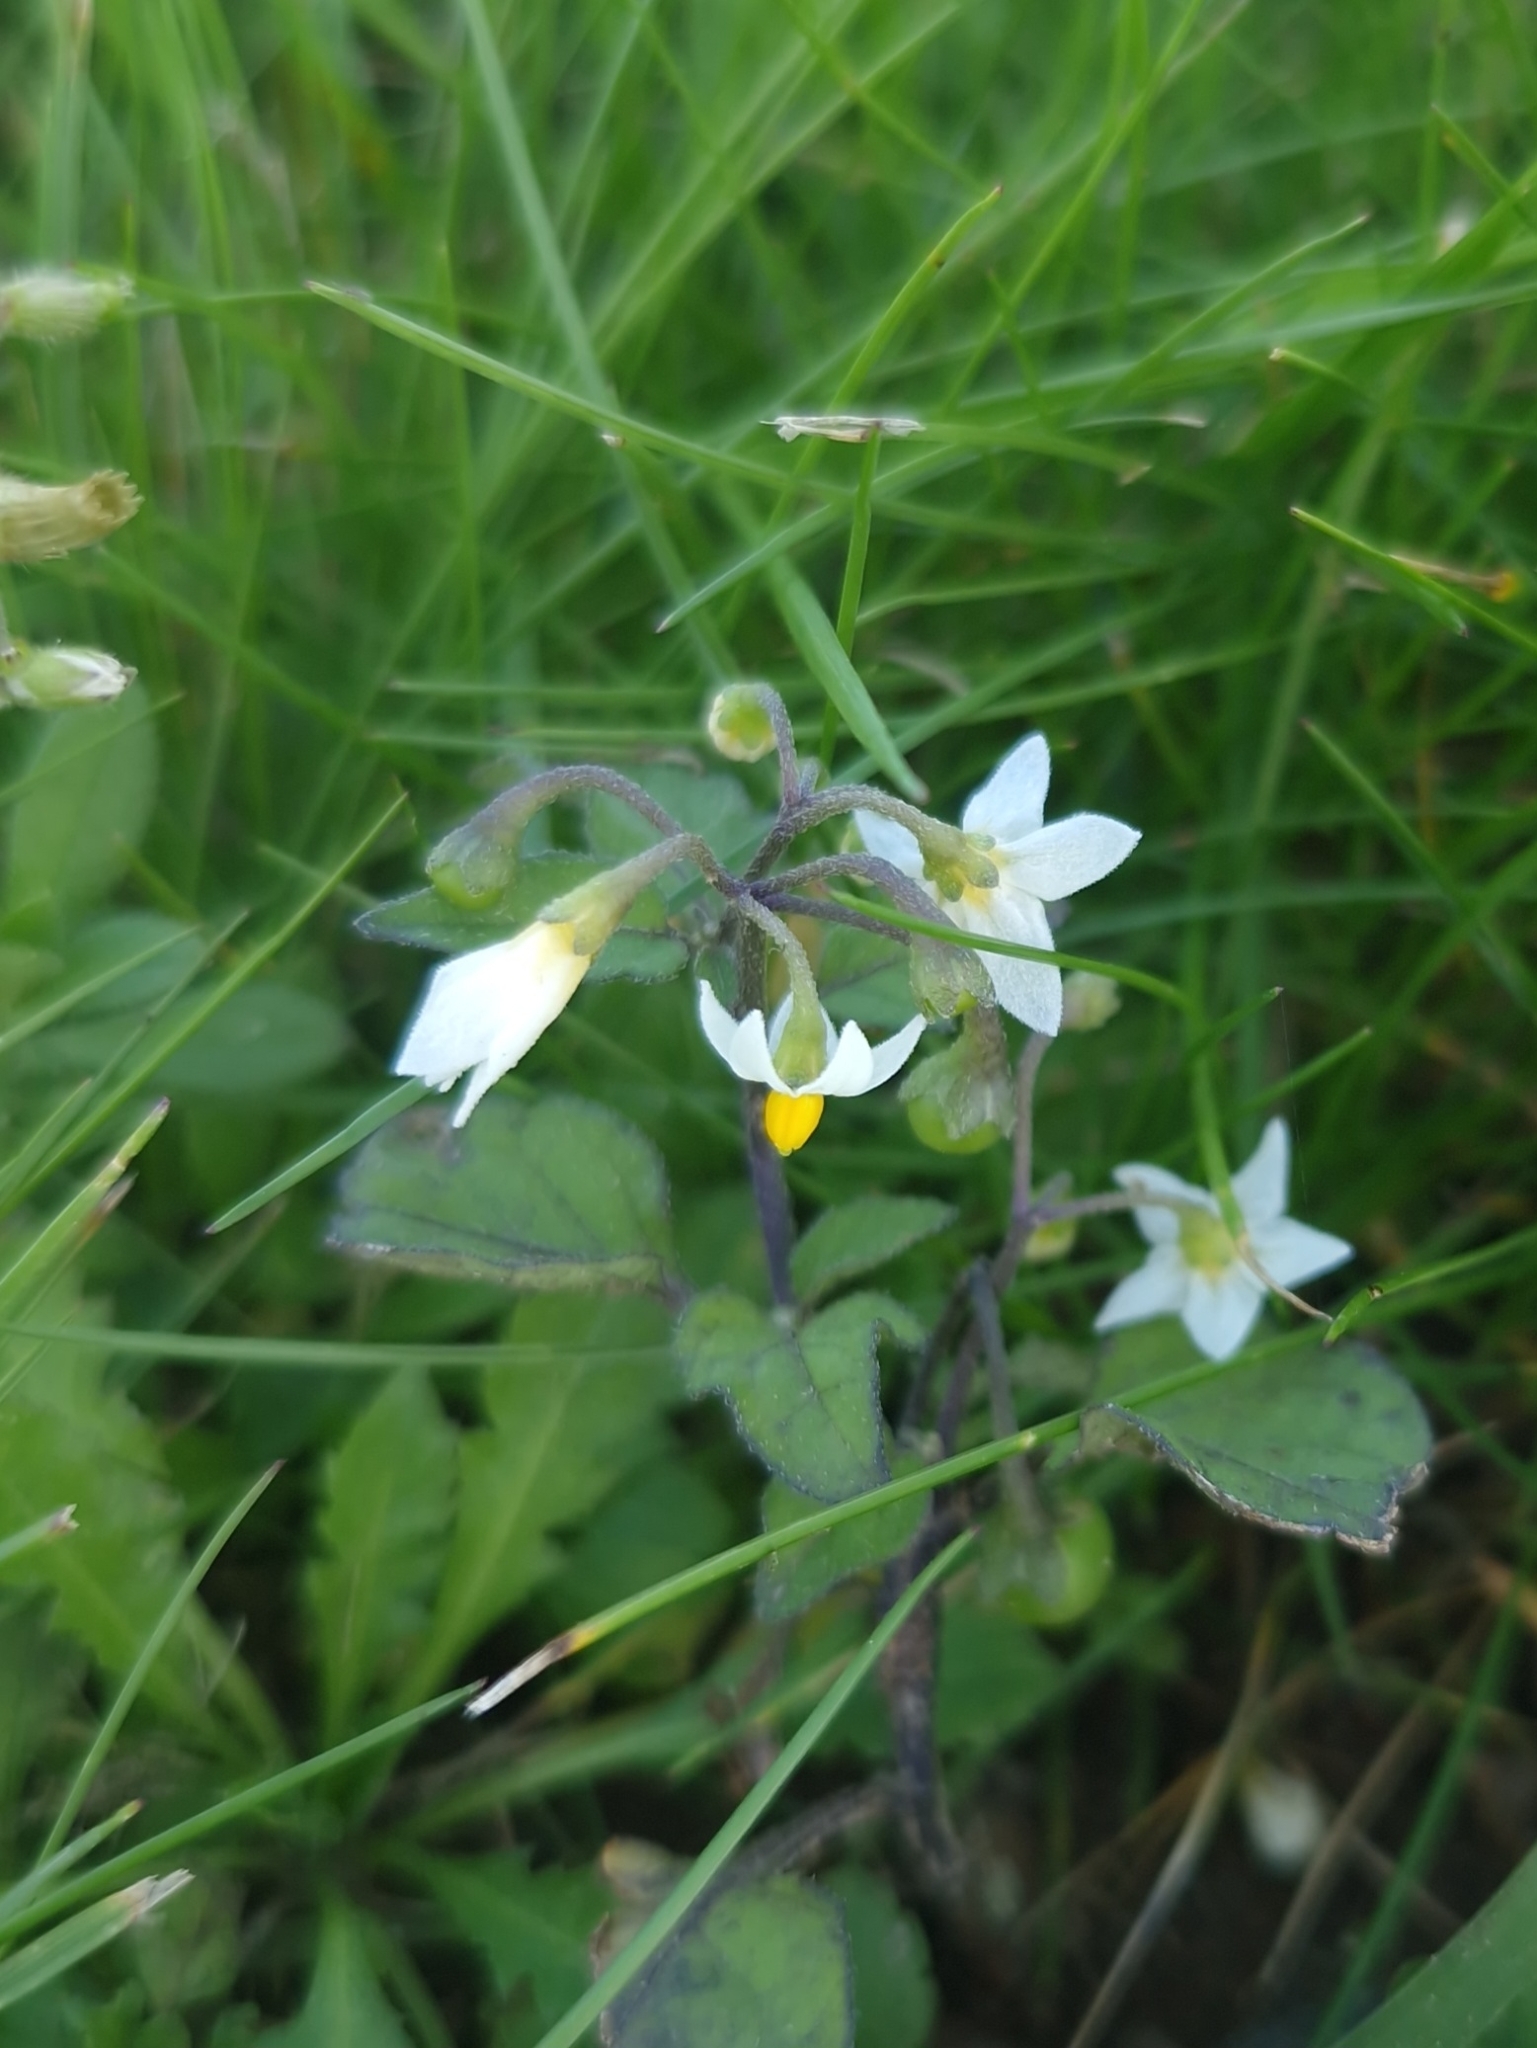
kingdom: Plantae
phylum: Tracheophyta
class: Magnoliopsida
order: Solanales
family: Solanaceae
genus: Solanum
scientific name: Solanum nigrum
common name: Black nightshade
